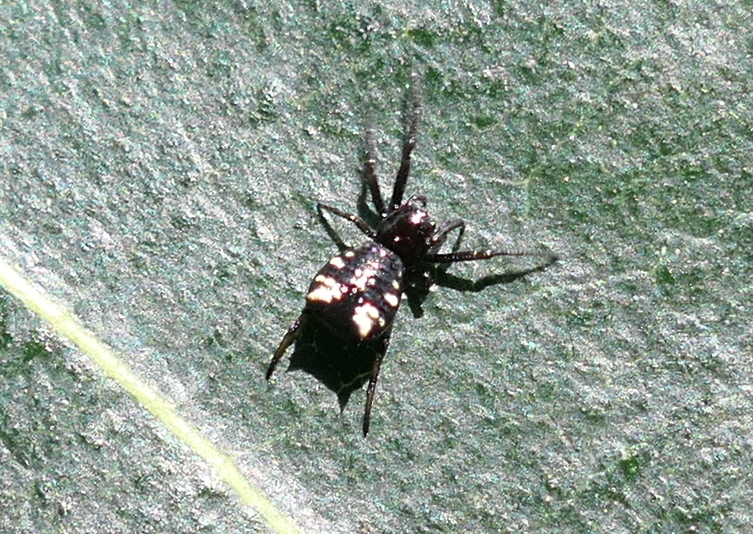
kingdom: Animalia
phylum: Arthropoda
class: Arachnida
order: Araneae
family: Araneidae
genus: Micrathena
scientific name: Micrathena patruelis
